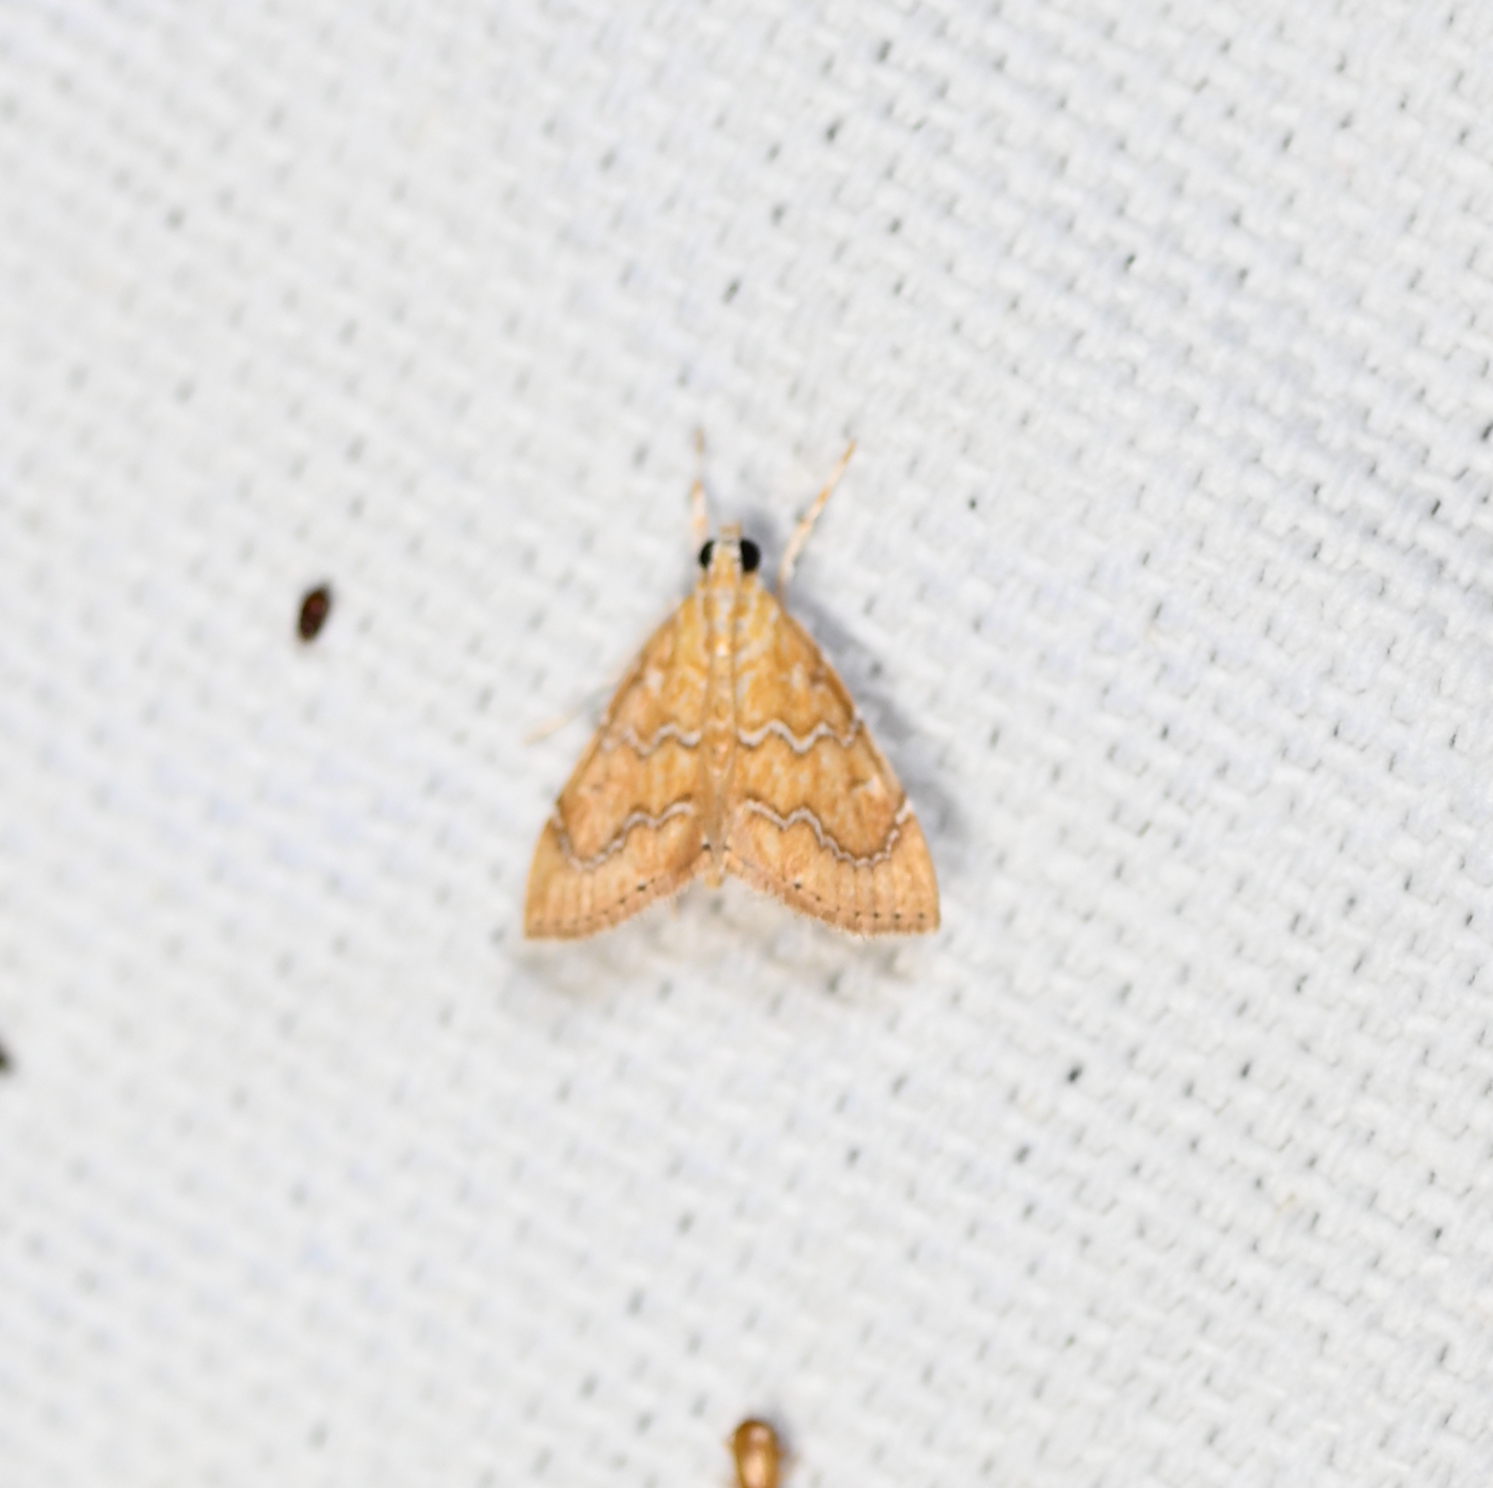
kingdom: Animalia
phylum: Arthropoda
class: Insecta
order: Lepidoptera
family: Crambidae
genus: Glaphyria
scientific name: Glaphyria sesquistrialis
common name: White-roped glaphyria
